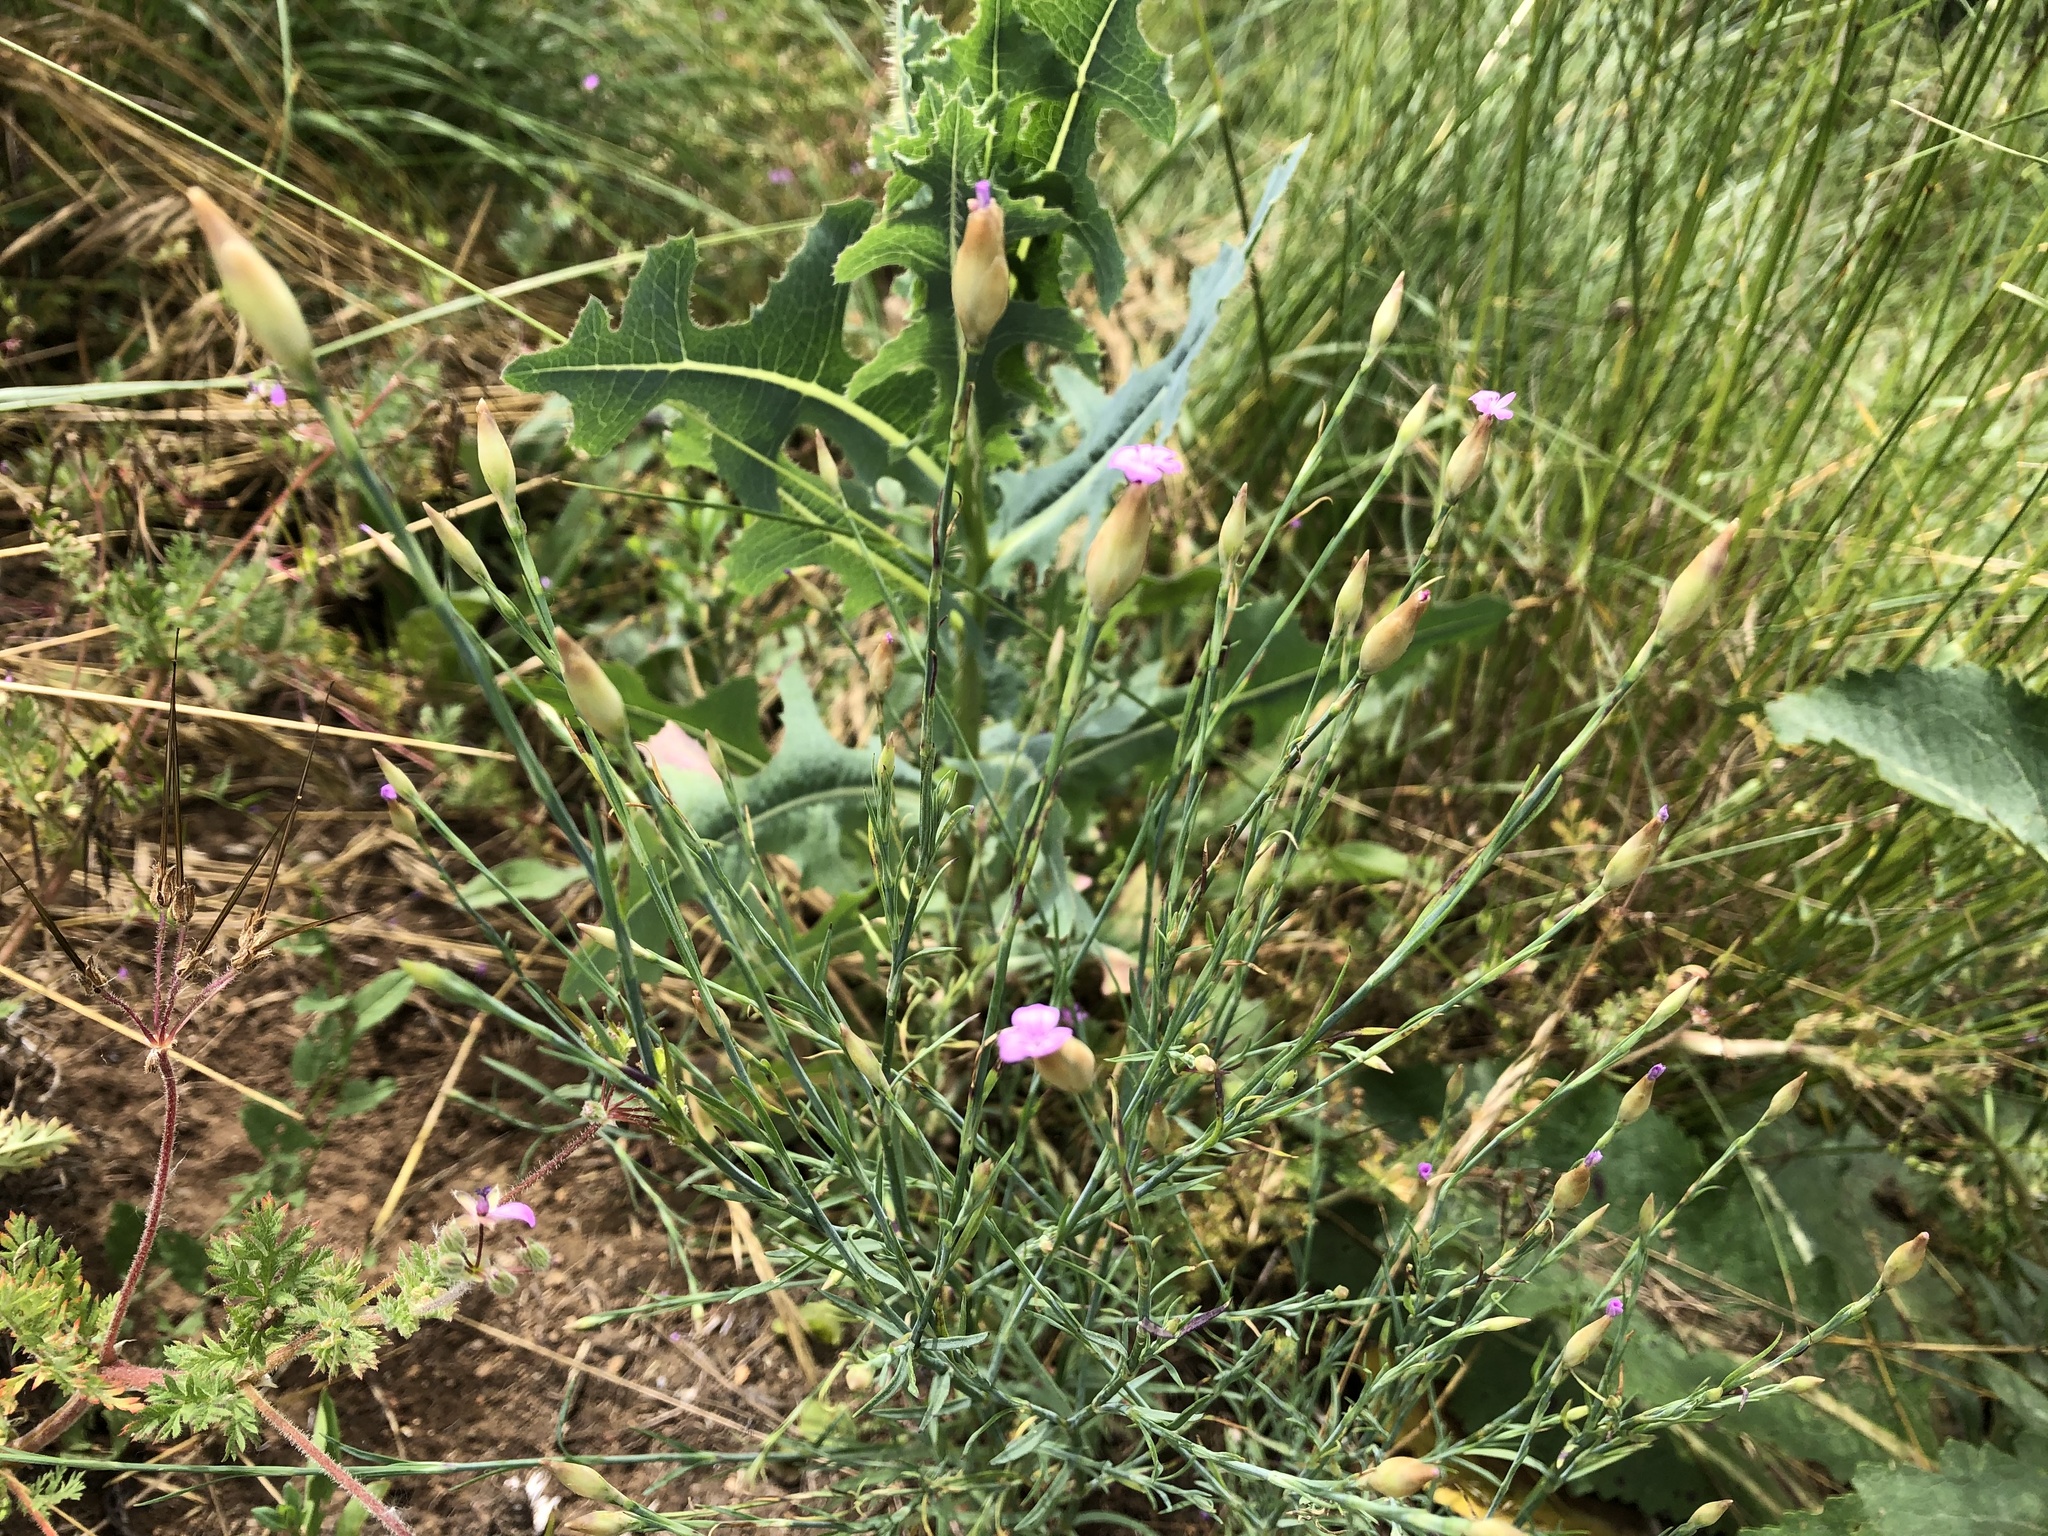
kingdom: Plantae
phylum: Tracheophyta
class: Magnoliopsida
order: Caryophyllales
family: Caryophyllaceae
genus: Petrorhagia
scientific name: Petrorhagia prolifera
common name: Proliferous pink
